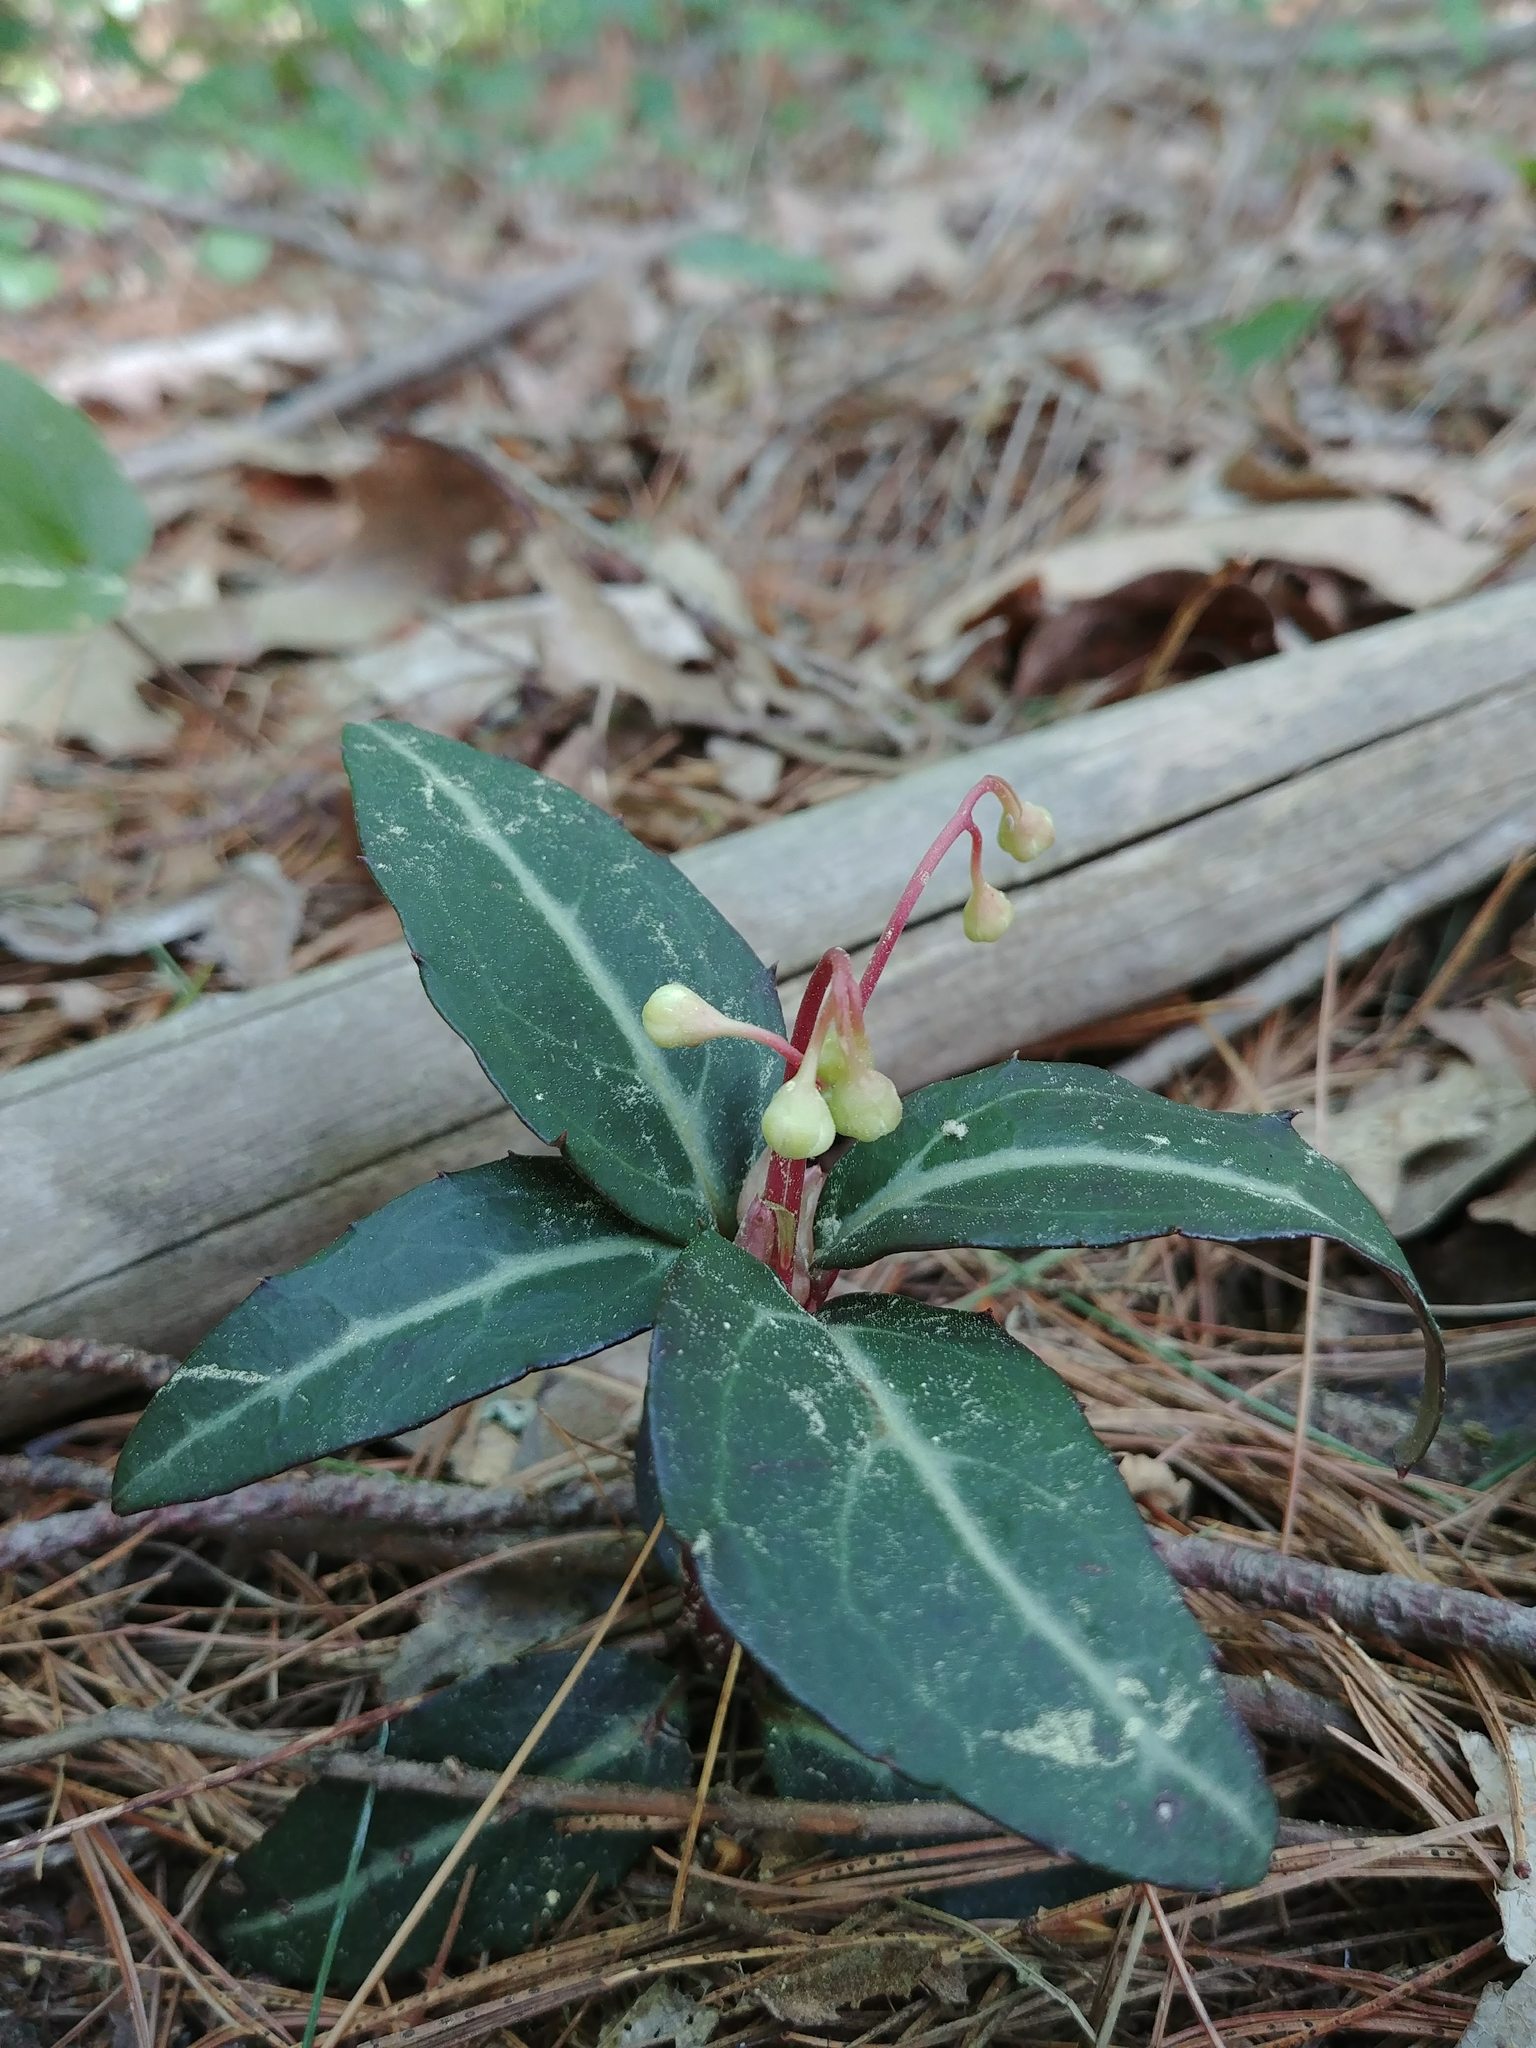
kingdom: Plantae
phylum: Tracheophyta
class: Magnoliopsida
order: Ericales
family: Ericaceae
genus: Chimaphila
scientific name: Chimaphila maculata
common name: Spotted pipsissewa
